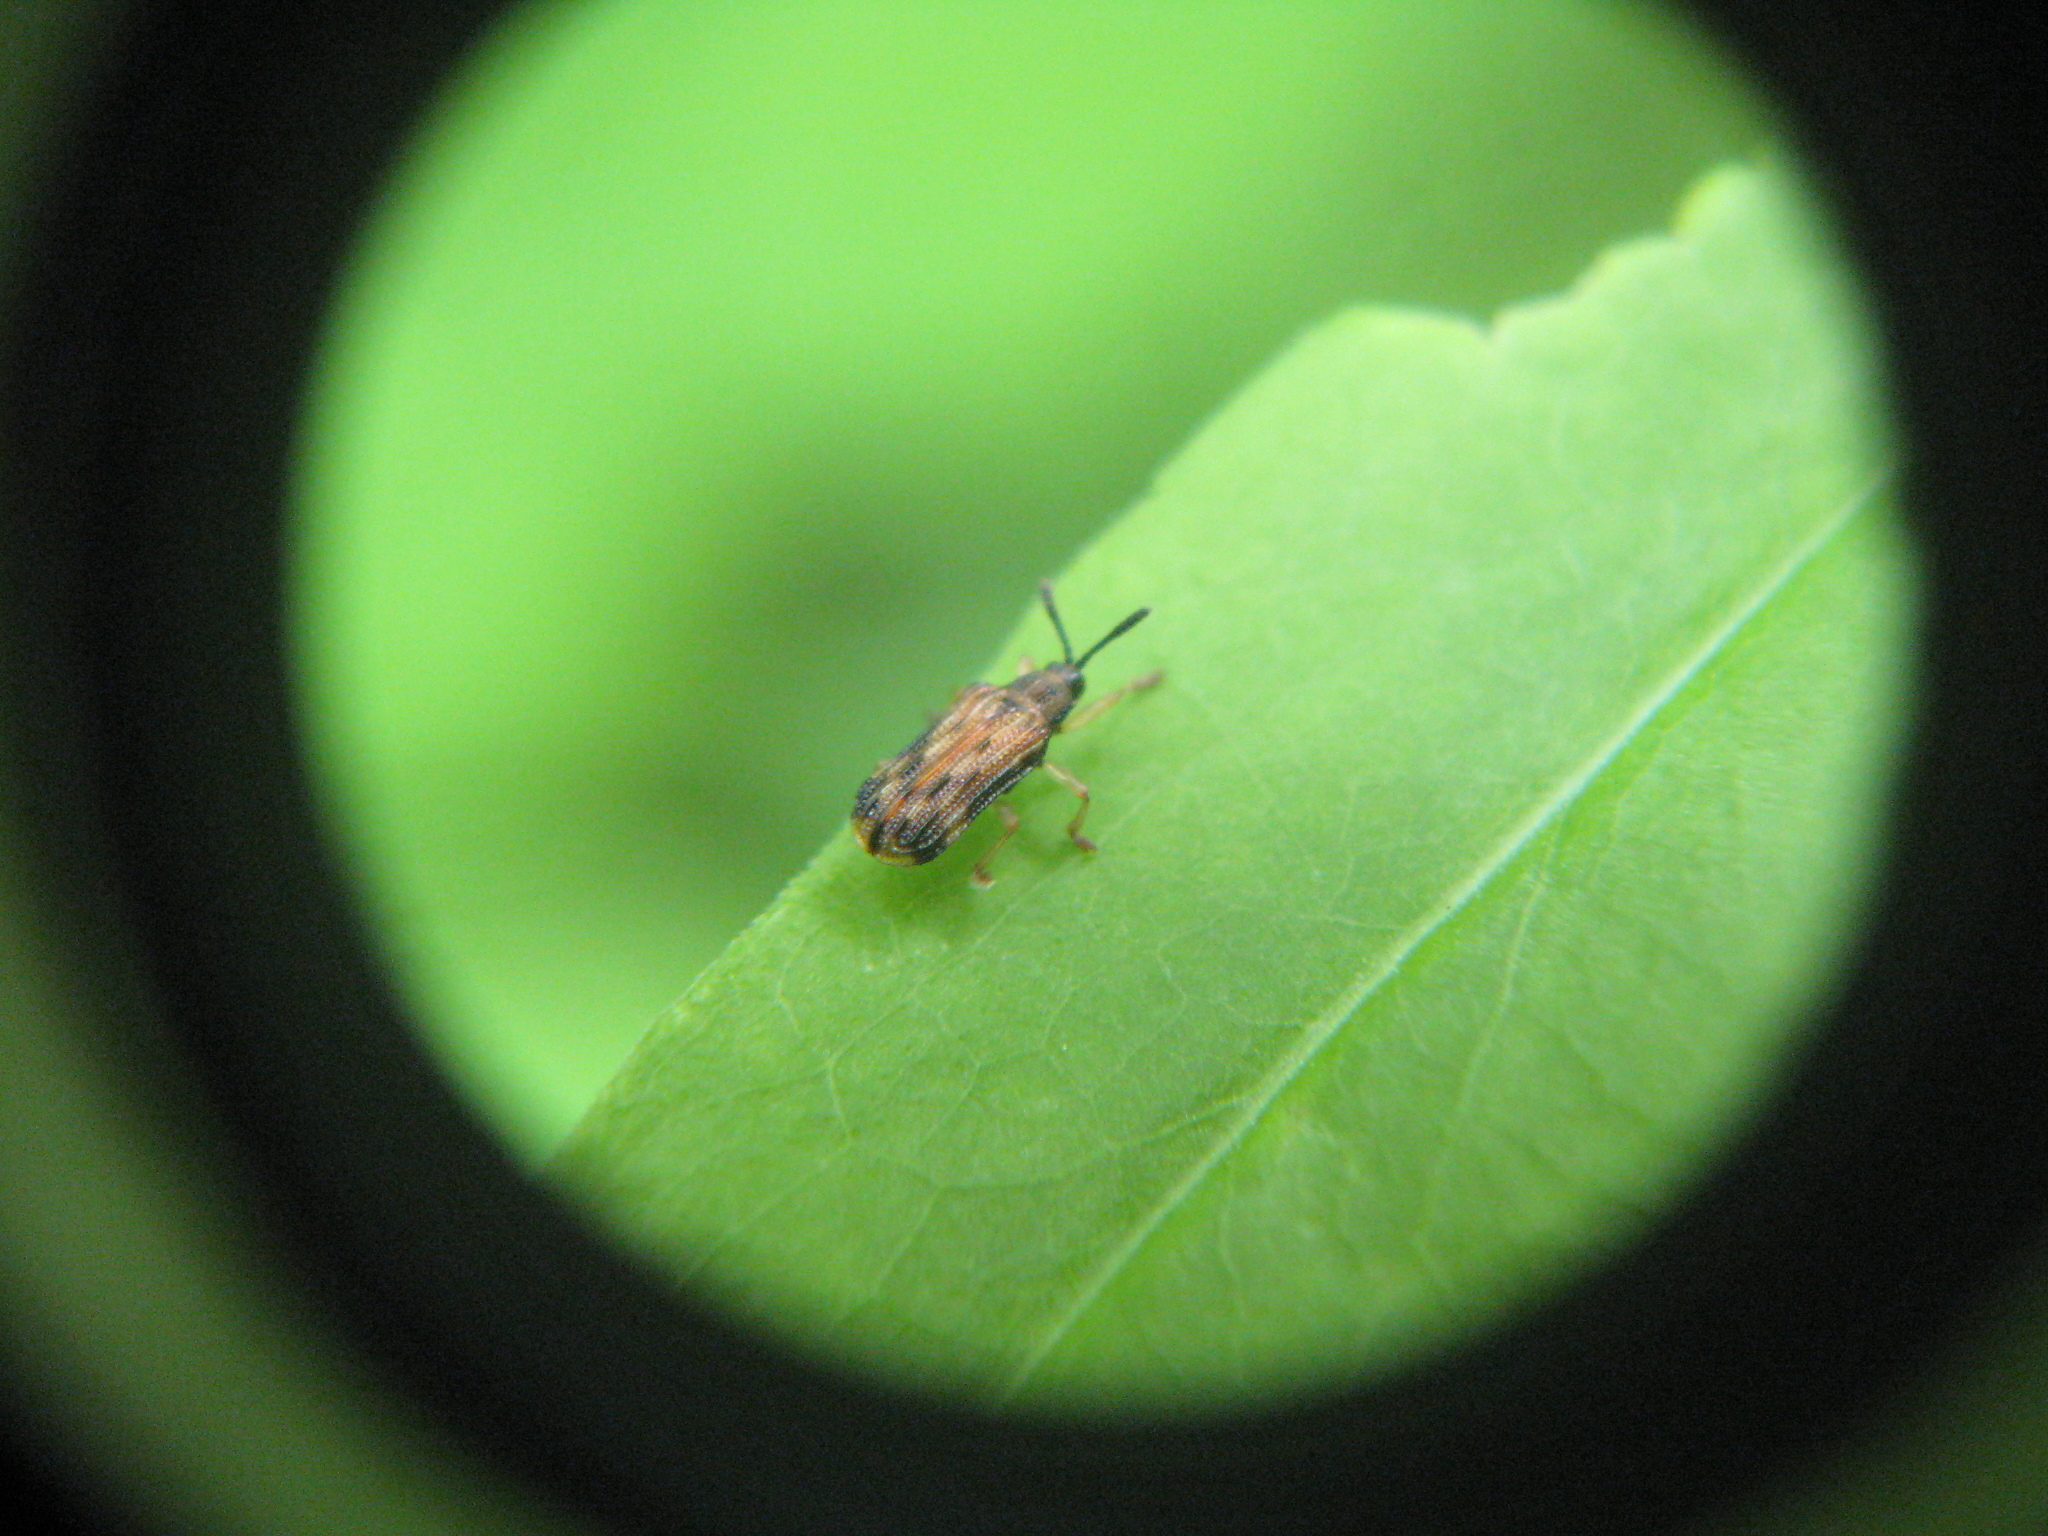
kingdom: Animalia
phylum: Arthropoda
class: Insecta
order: Coleoptera
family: Chrysomelidae
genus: Sumitrosis
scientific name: Sumitrosis inaequalis
